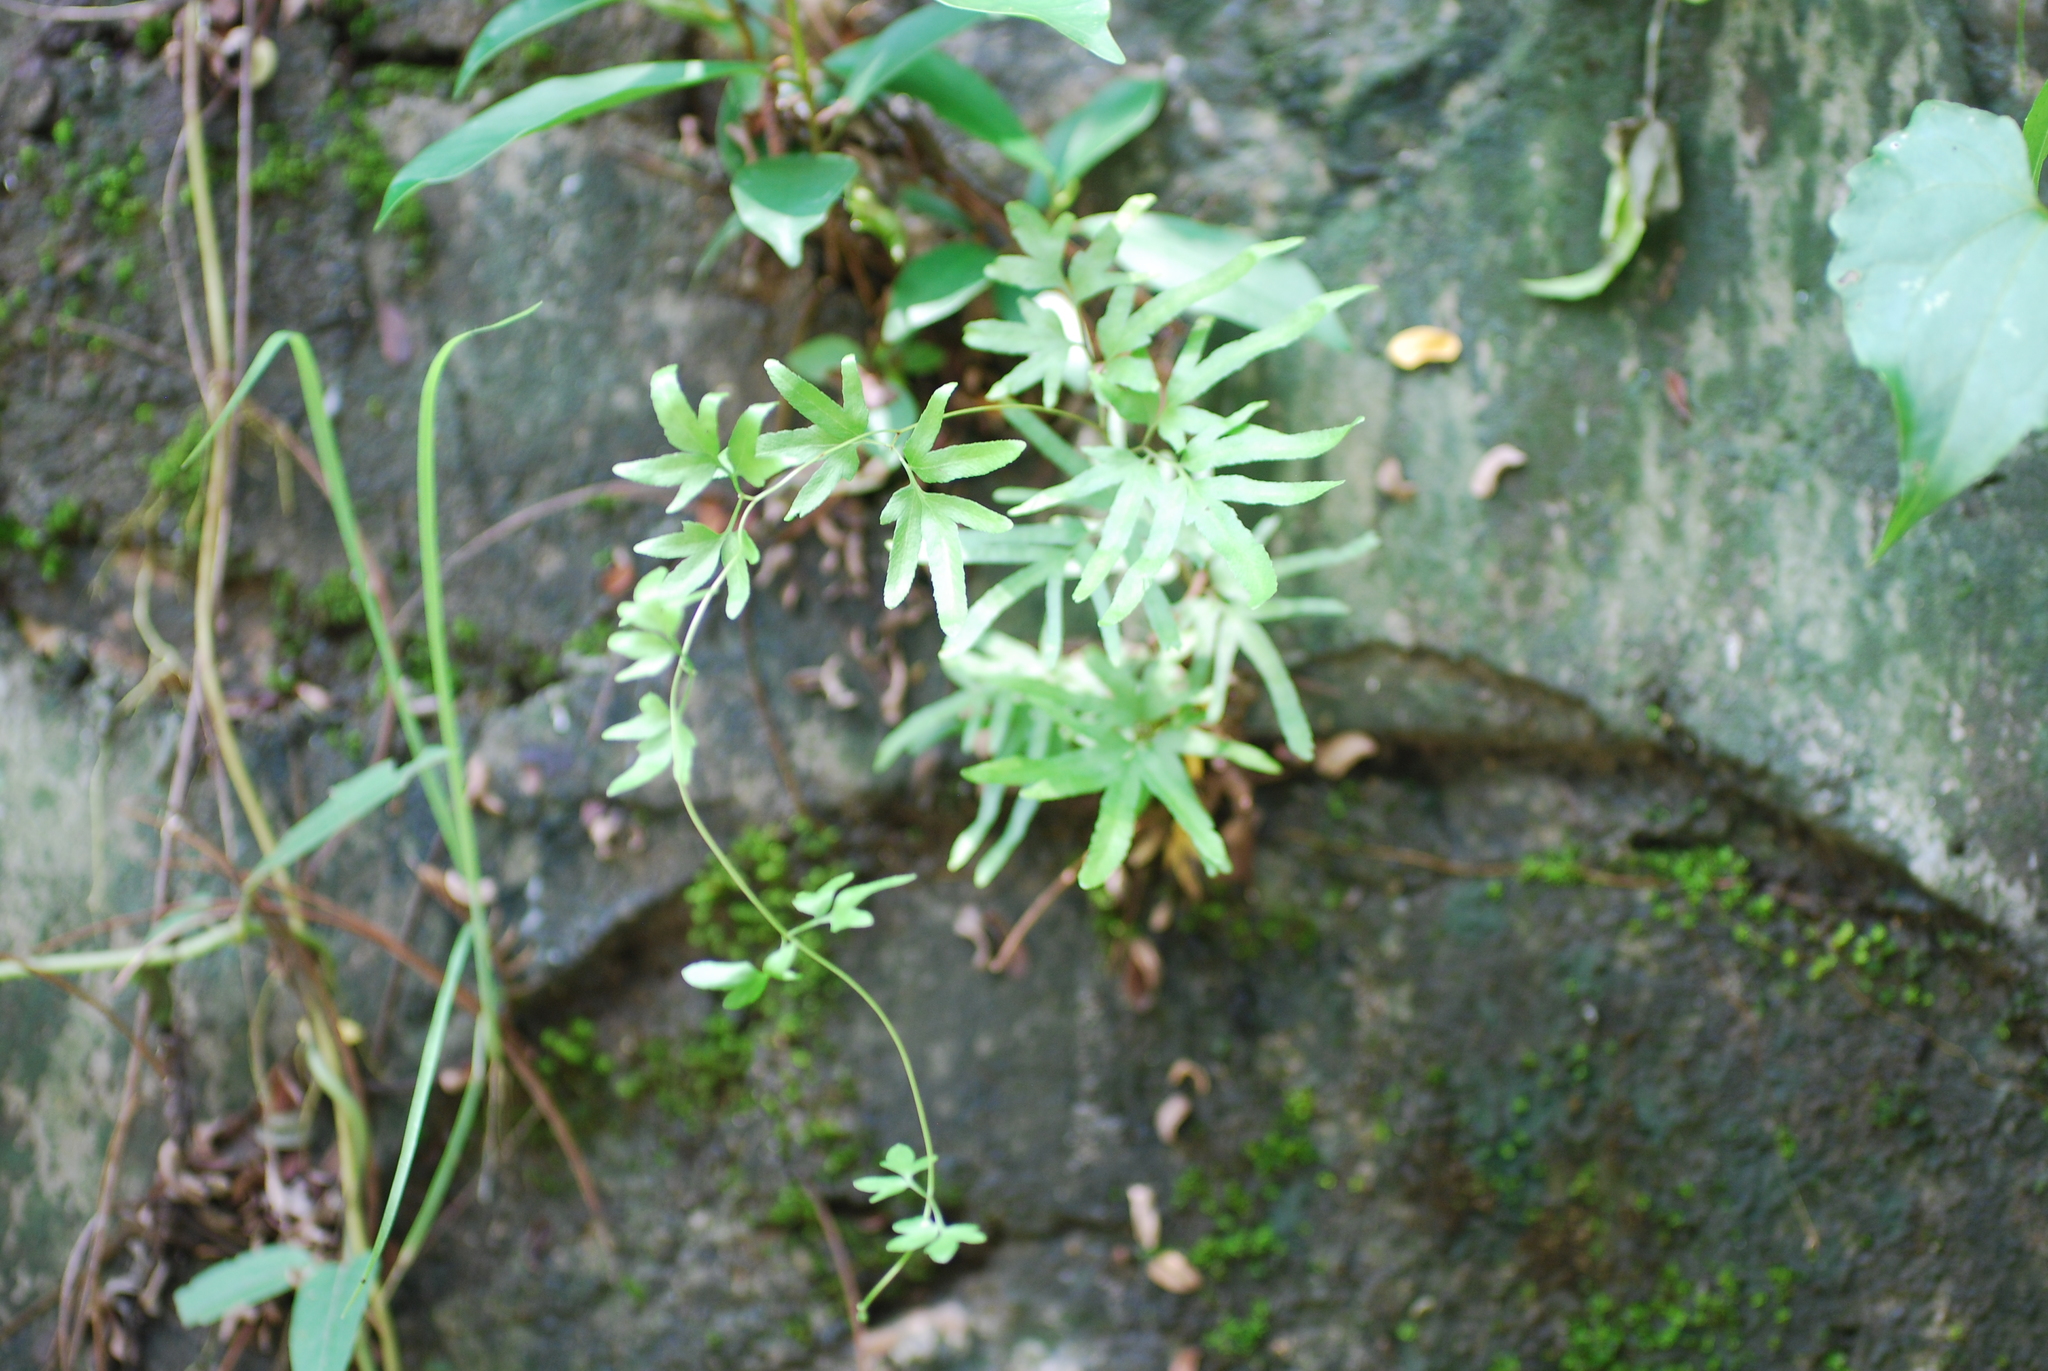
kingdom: Plantae
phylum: Tracheophyta
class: Polypodiopsida
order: Schizaeales
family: Lygodiaceae
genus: Lygodium
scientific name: Lygodium japonicum
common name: Japanese climbing fern
